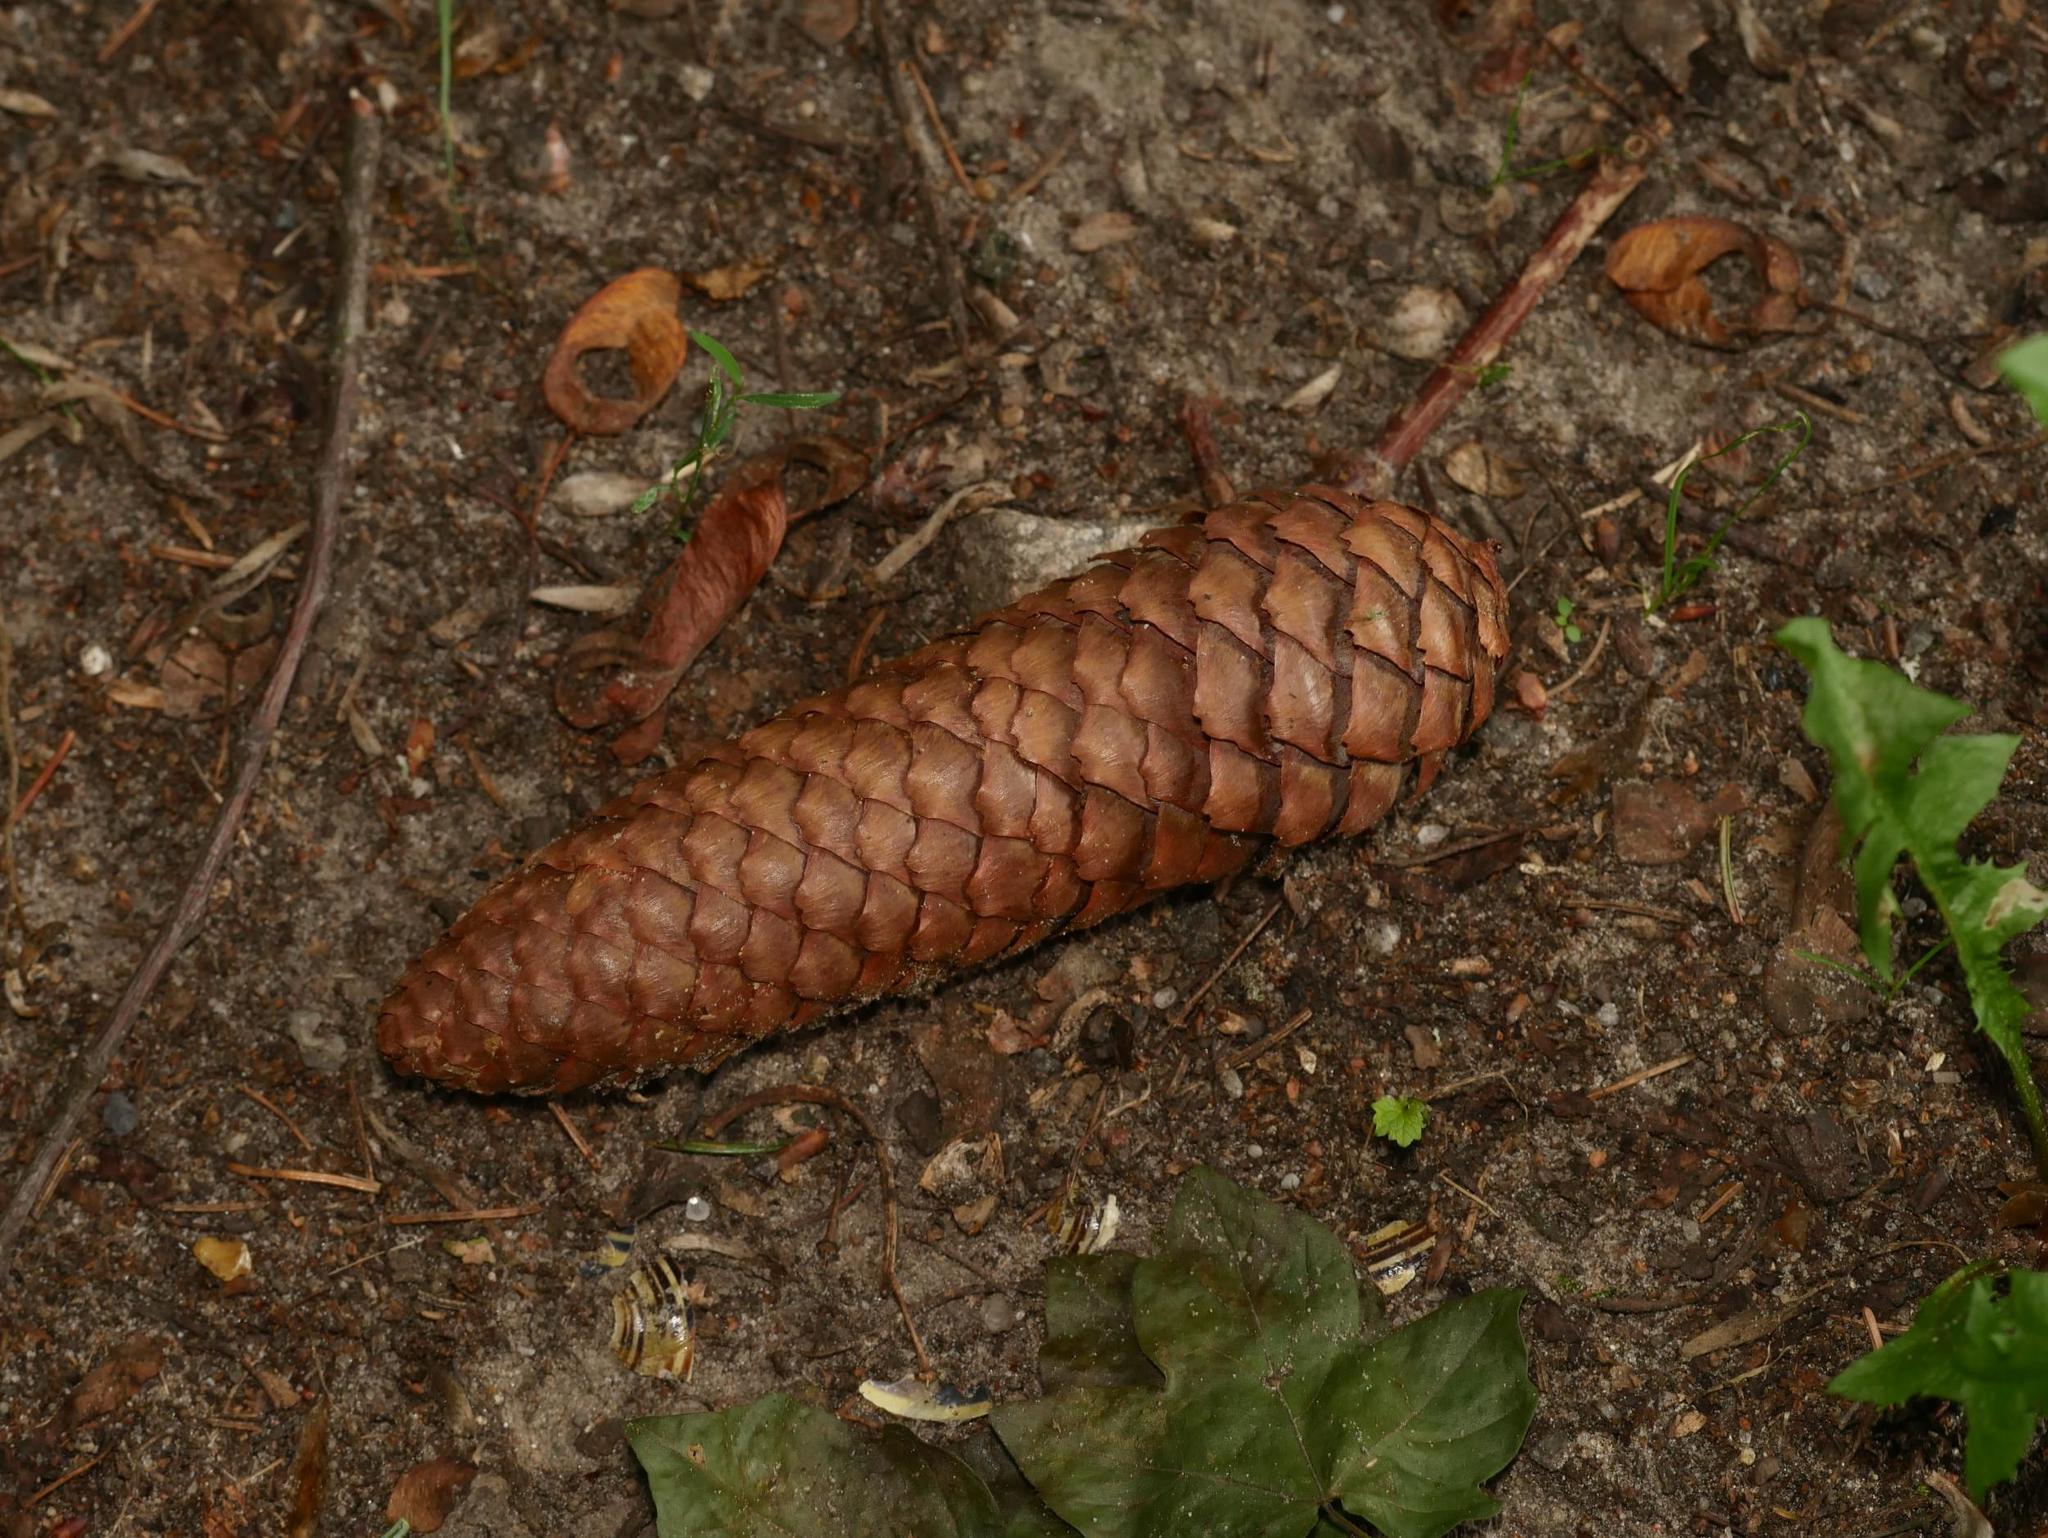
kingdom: Plantae
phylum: Tracheophyta
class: Pinopsida
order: Pinales
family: Pinaceae
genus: Picea
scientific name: Picea abies
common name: Norway spruce
